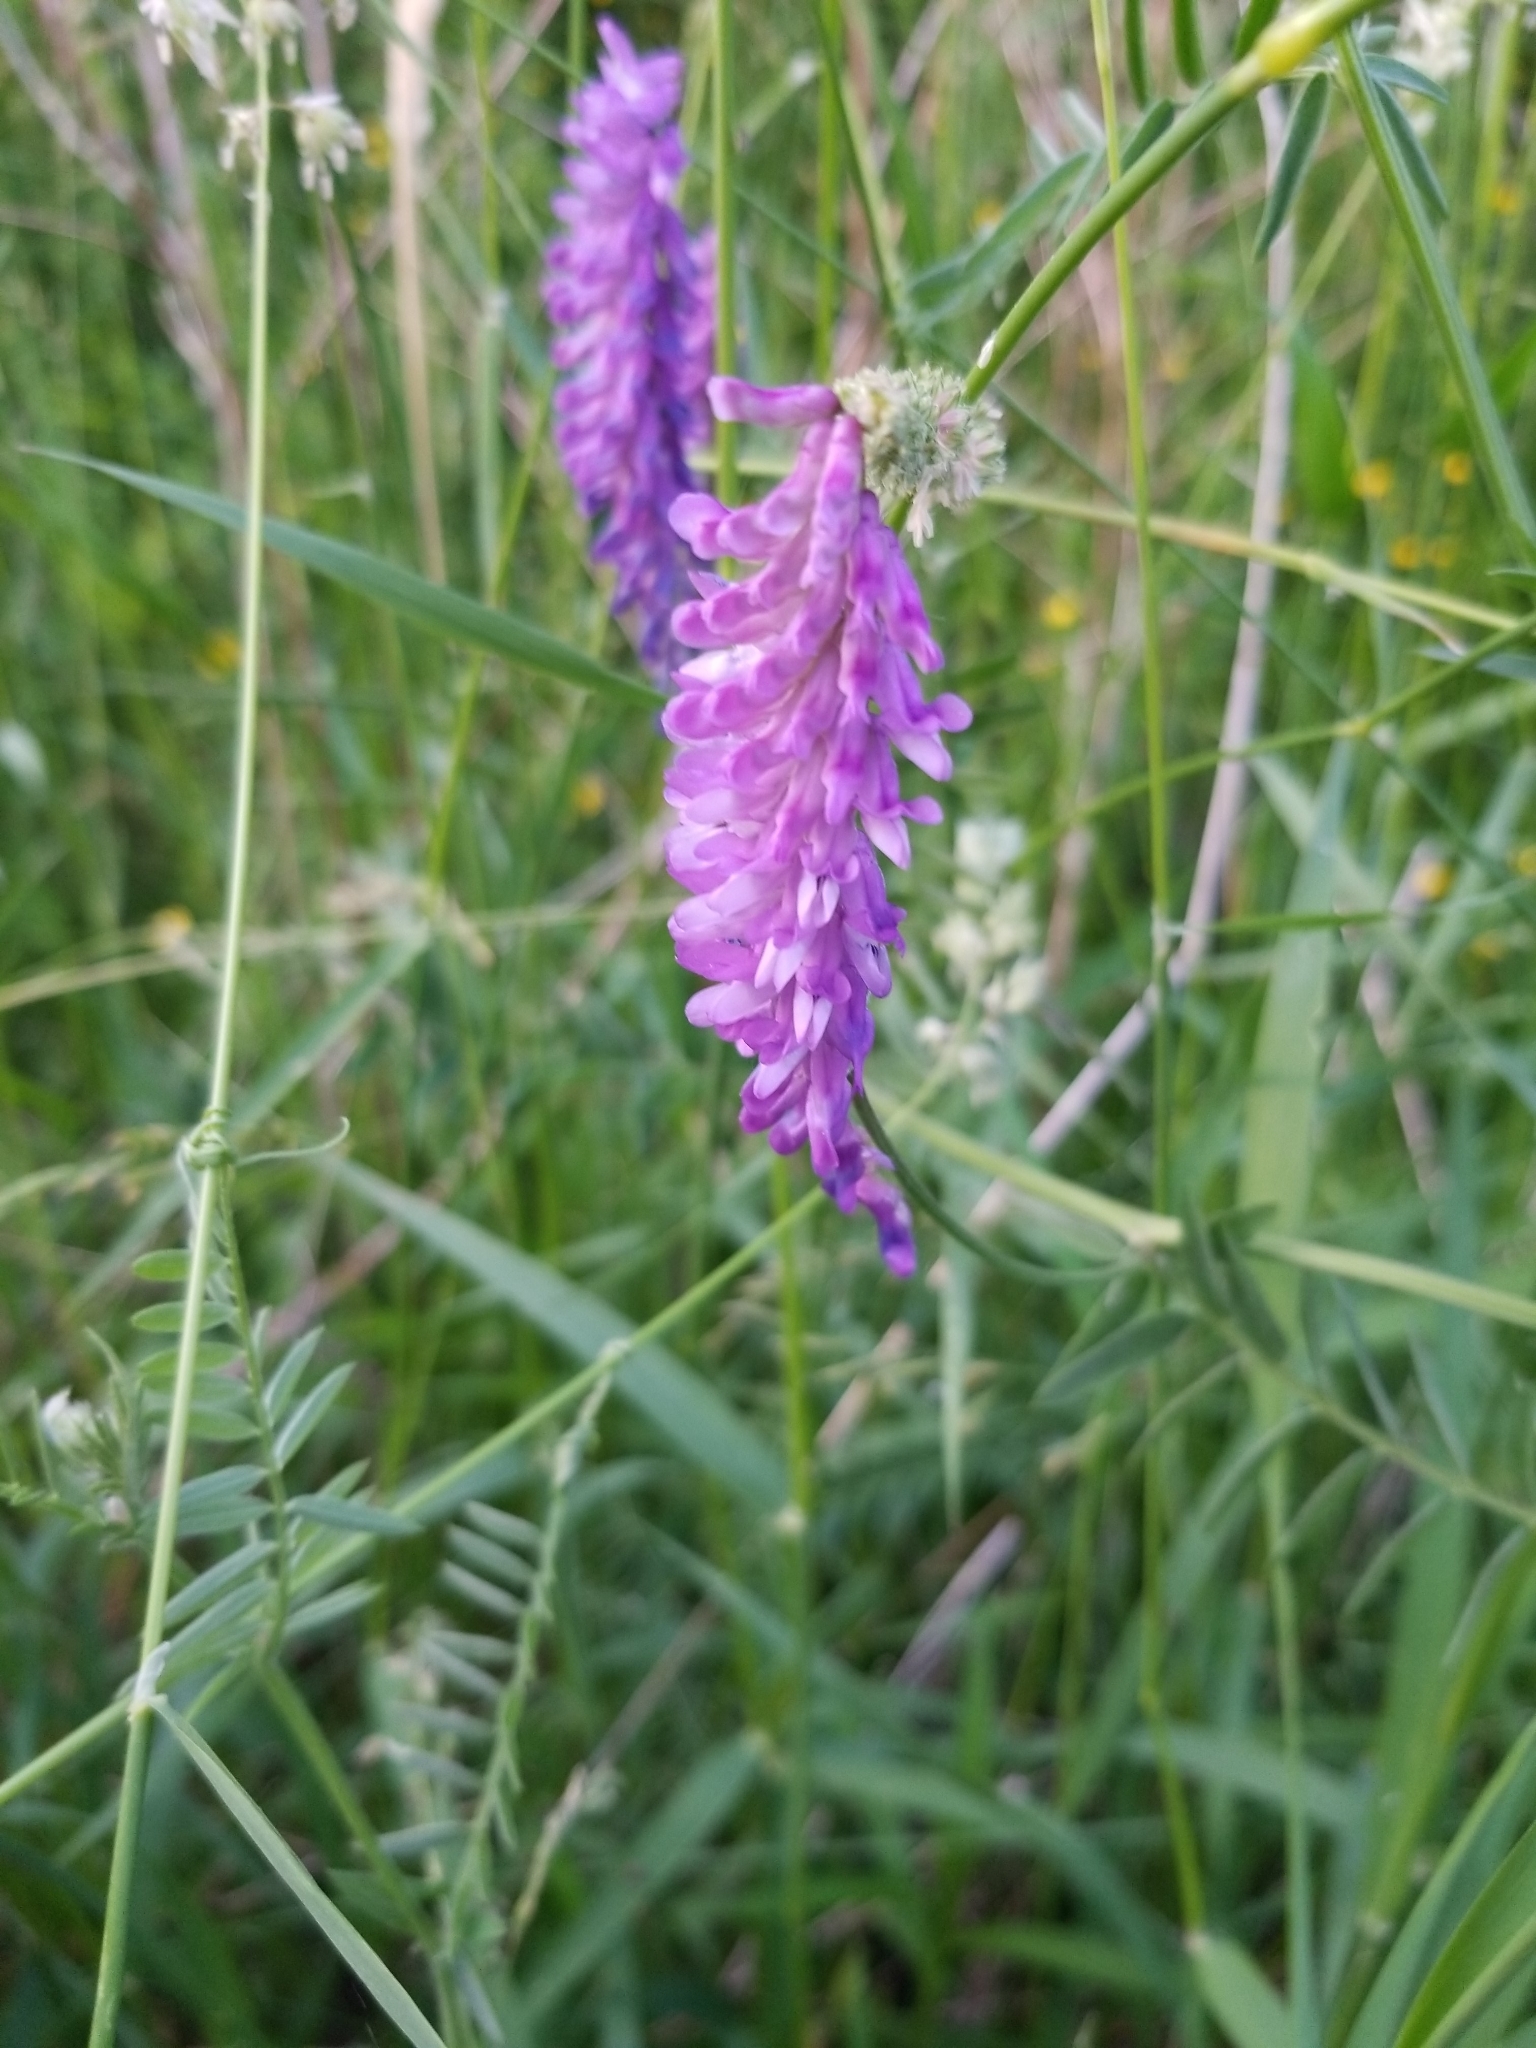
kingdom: Plantae
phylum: Tracheophyta
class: Magnoliopsida
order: Fabales
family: Fabaceae
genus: Vicia
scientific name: Vicia cracca
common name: Bird vetch
